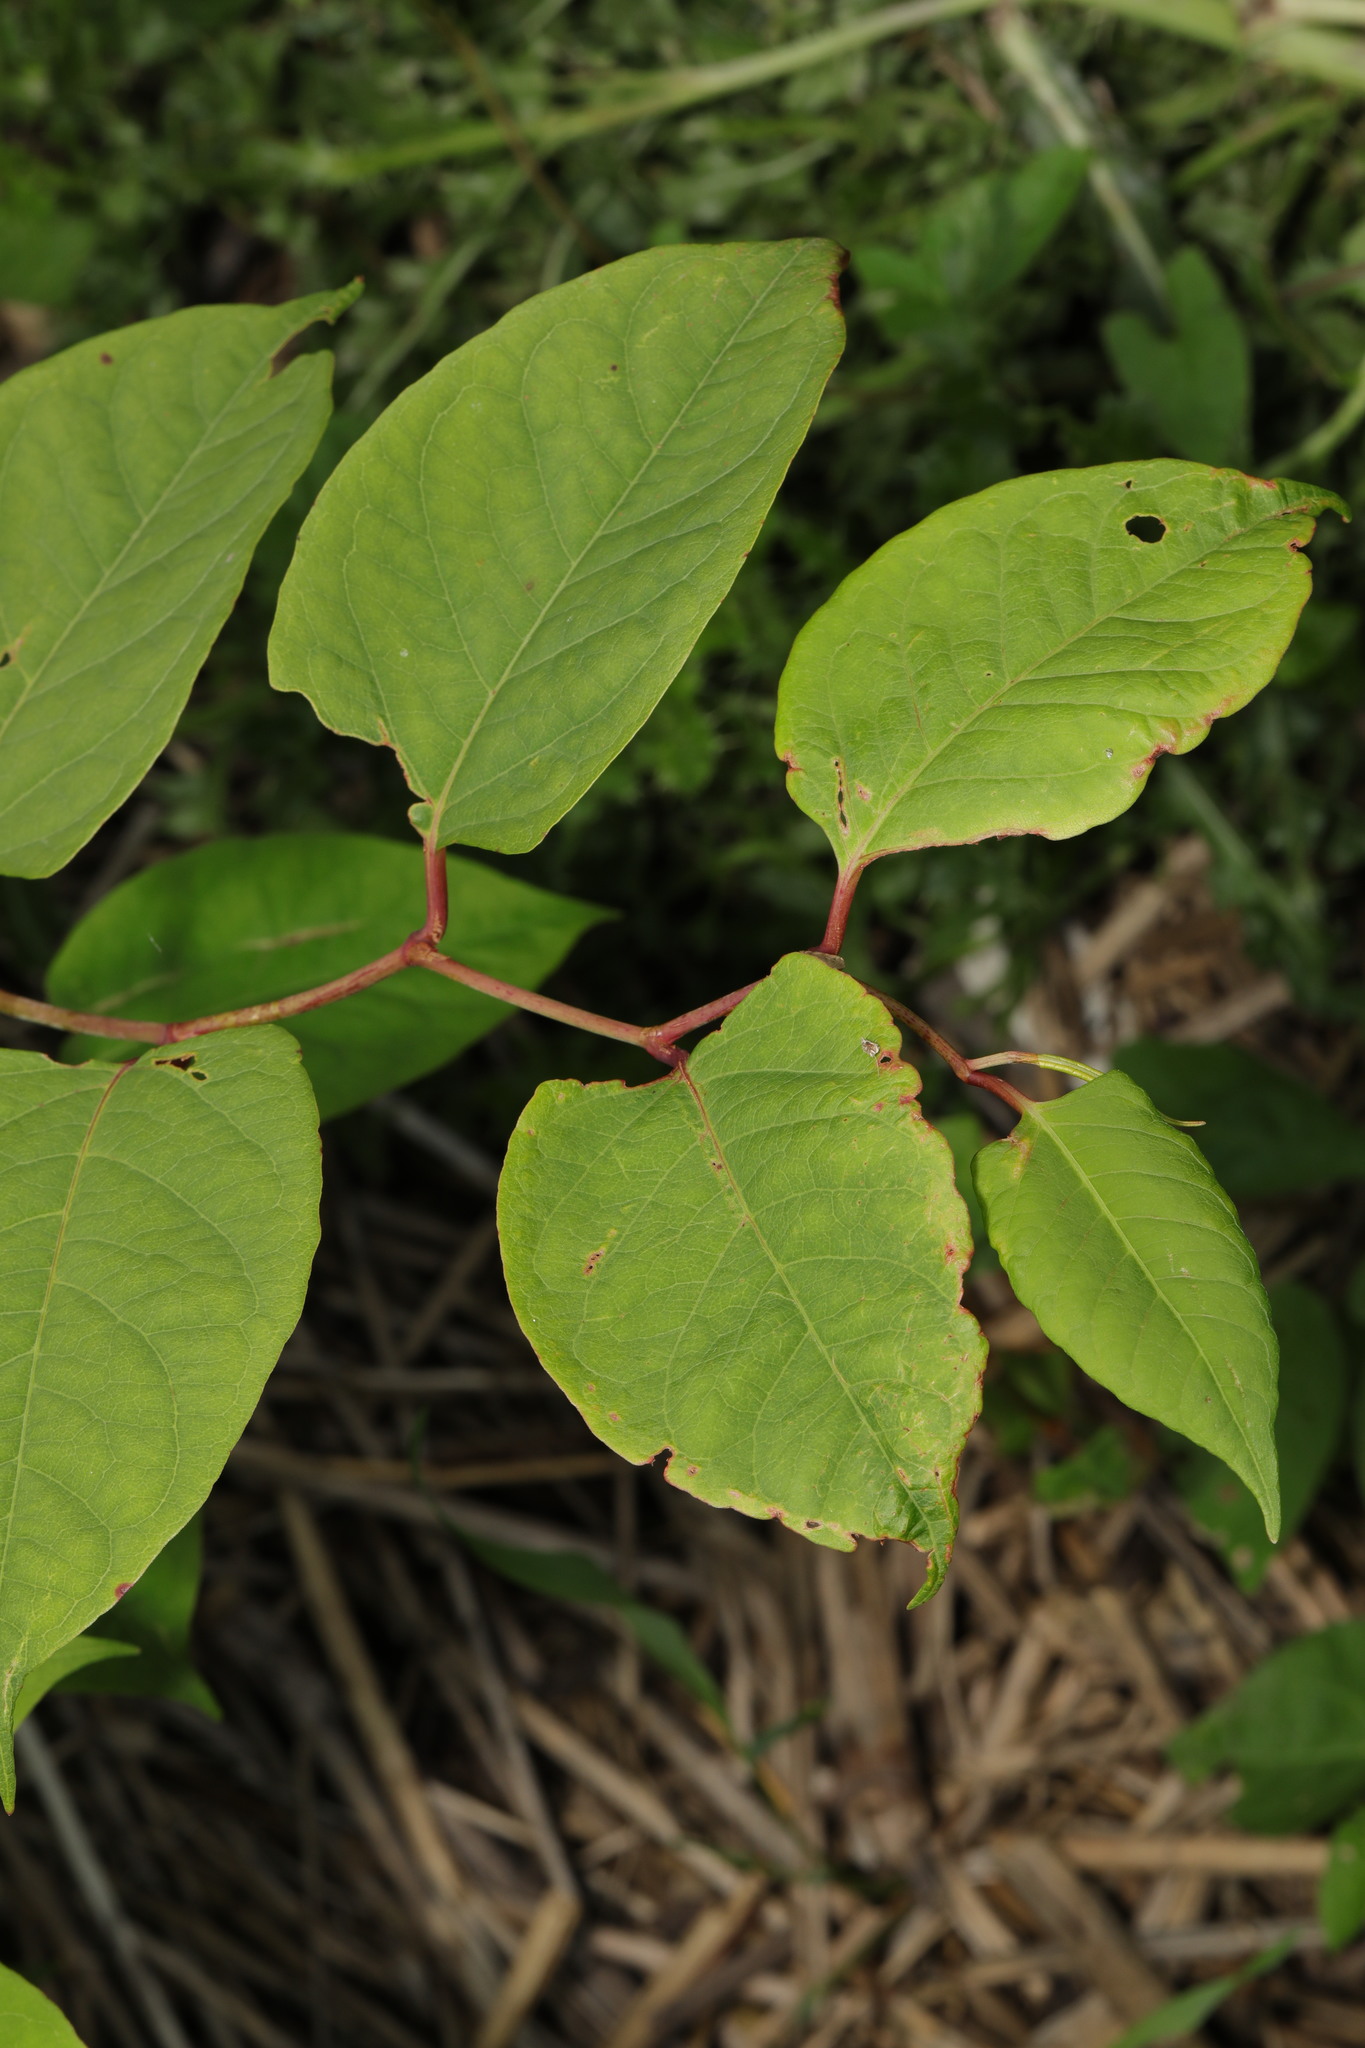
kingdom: Plantae
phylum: Tracheophyta
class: Magnoliopsida
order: Caryophyllales
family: Polygonaceae
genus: Reynoutria
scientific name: Reynoutria japonica
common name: Japanese knotweed
